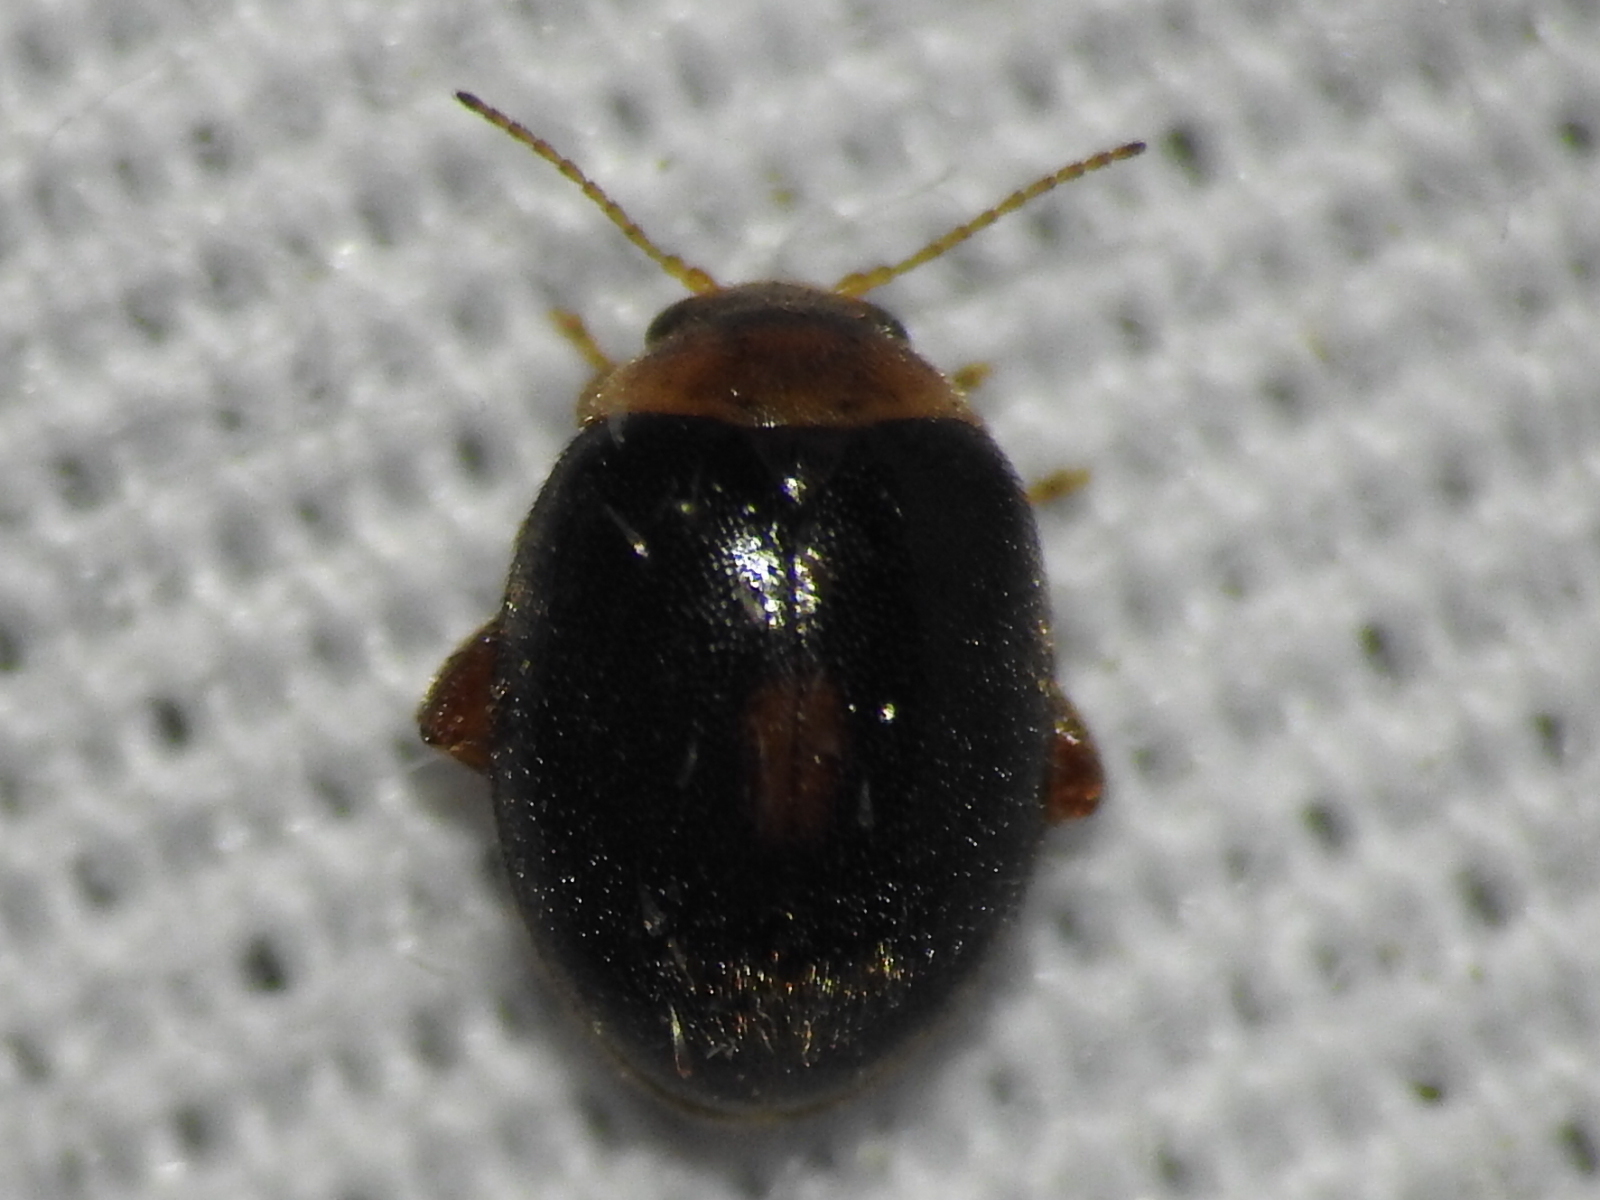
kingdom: Animalia
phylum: Arthropoda
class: Insecta
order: Coleoptera
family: Scirtidae
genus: Scirtes
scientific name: Scirtes orbiculatus
